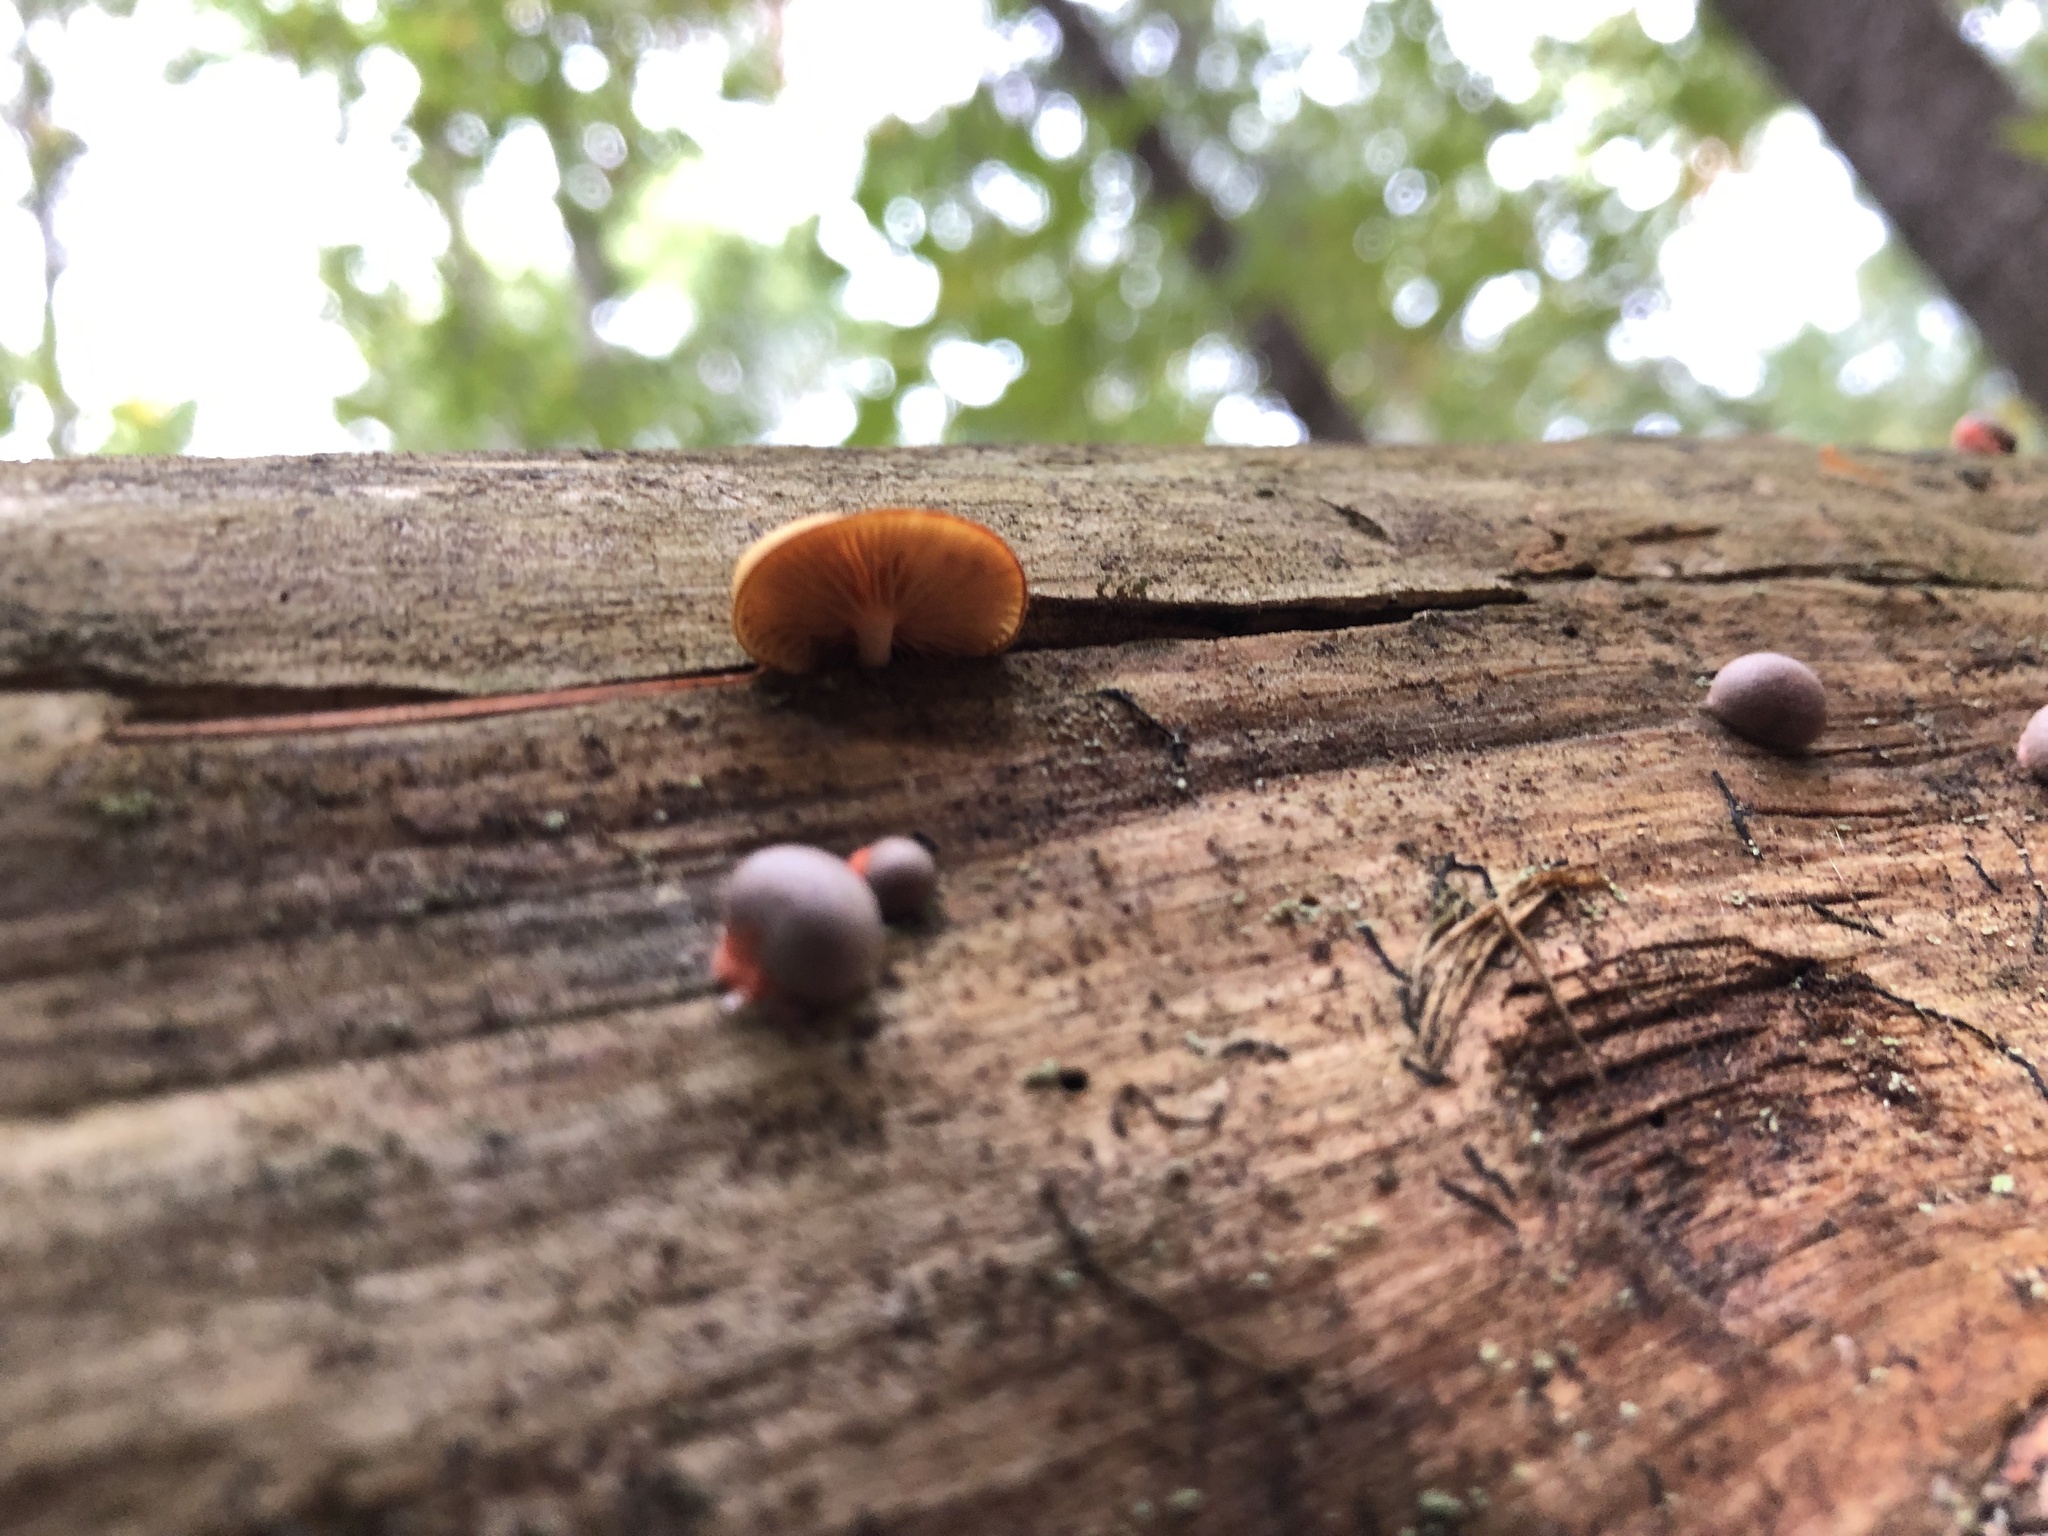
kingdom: Fungi
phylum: Basidiomycota
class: Agaricomycetes
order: Agaricales
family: Mycenaceae
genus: Mycena
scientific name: Mycena leaiana
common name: Orange mycena
